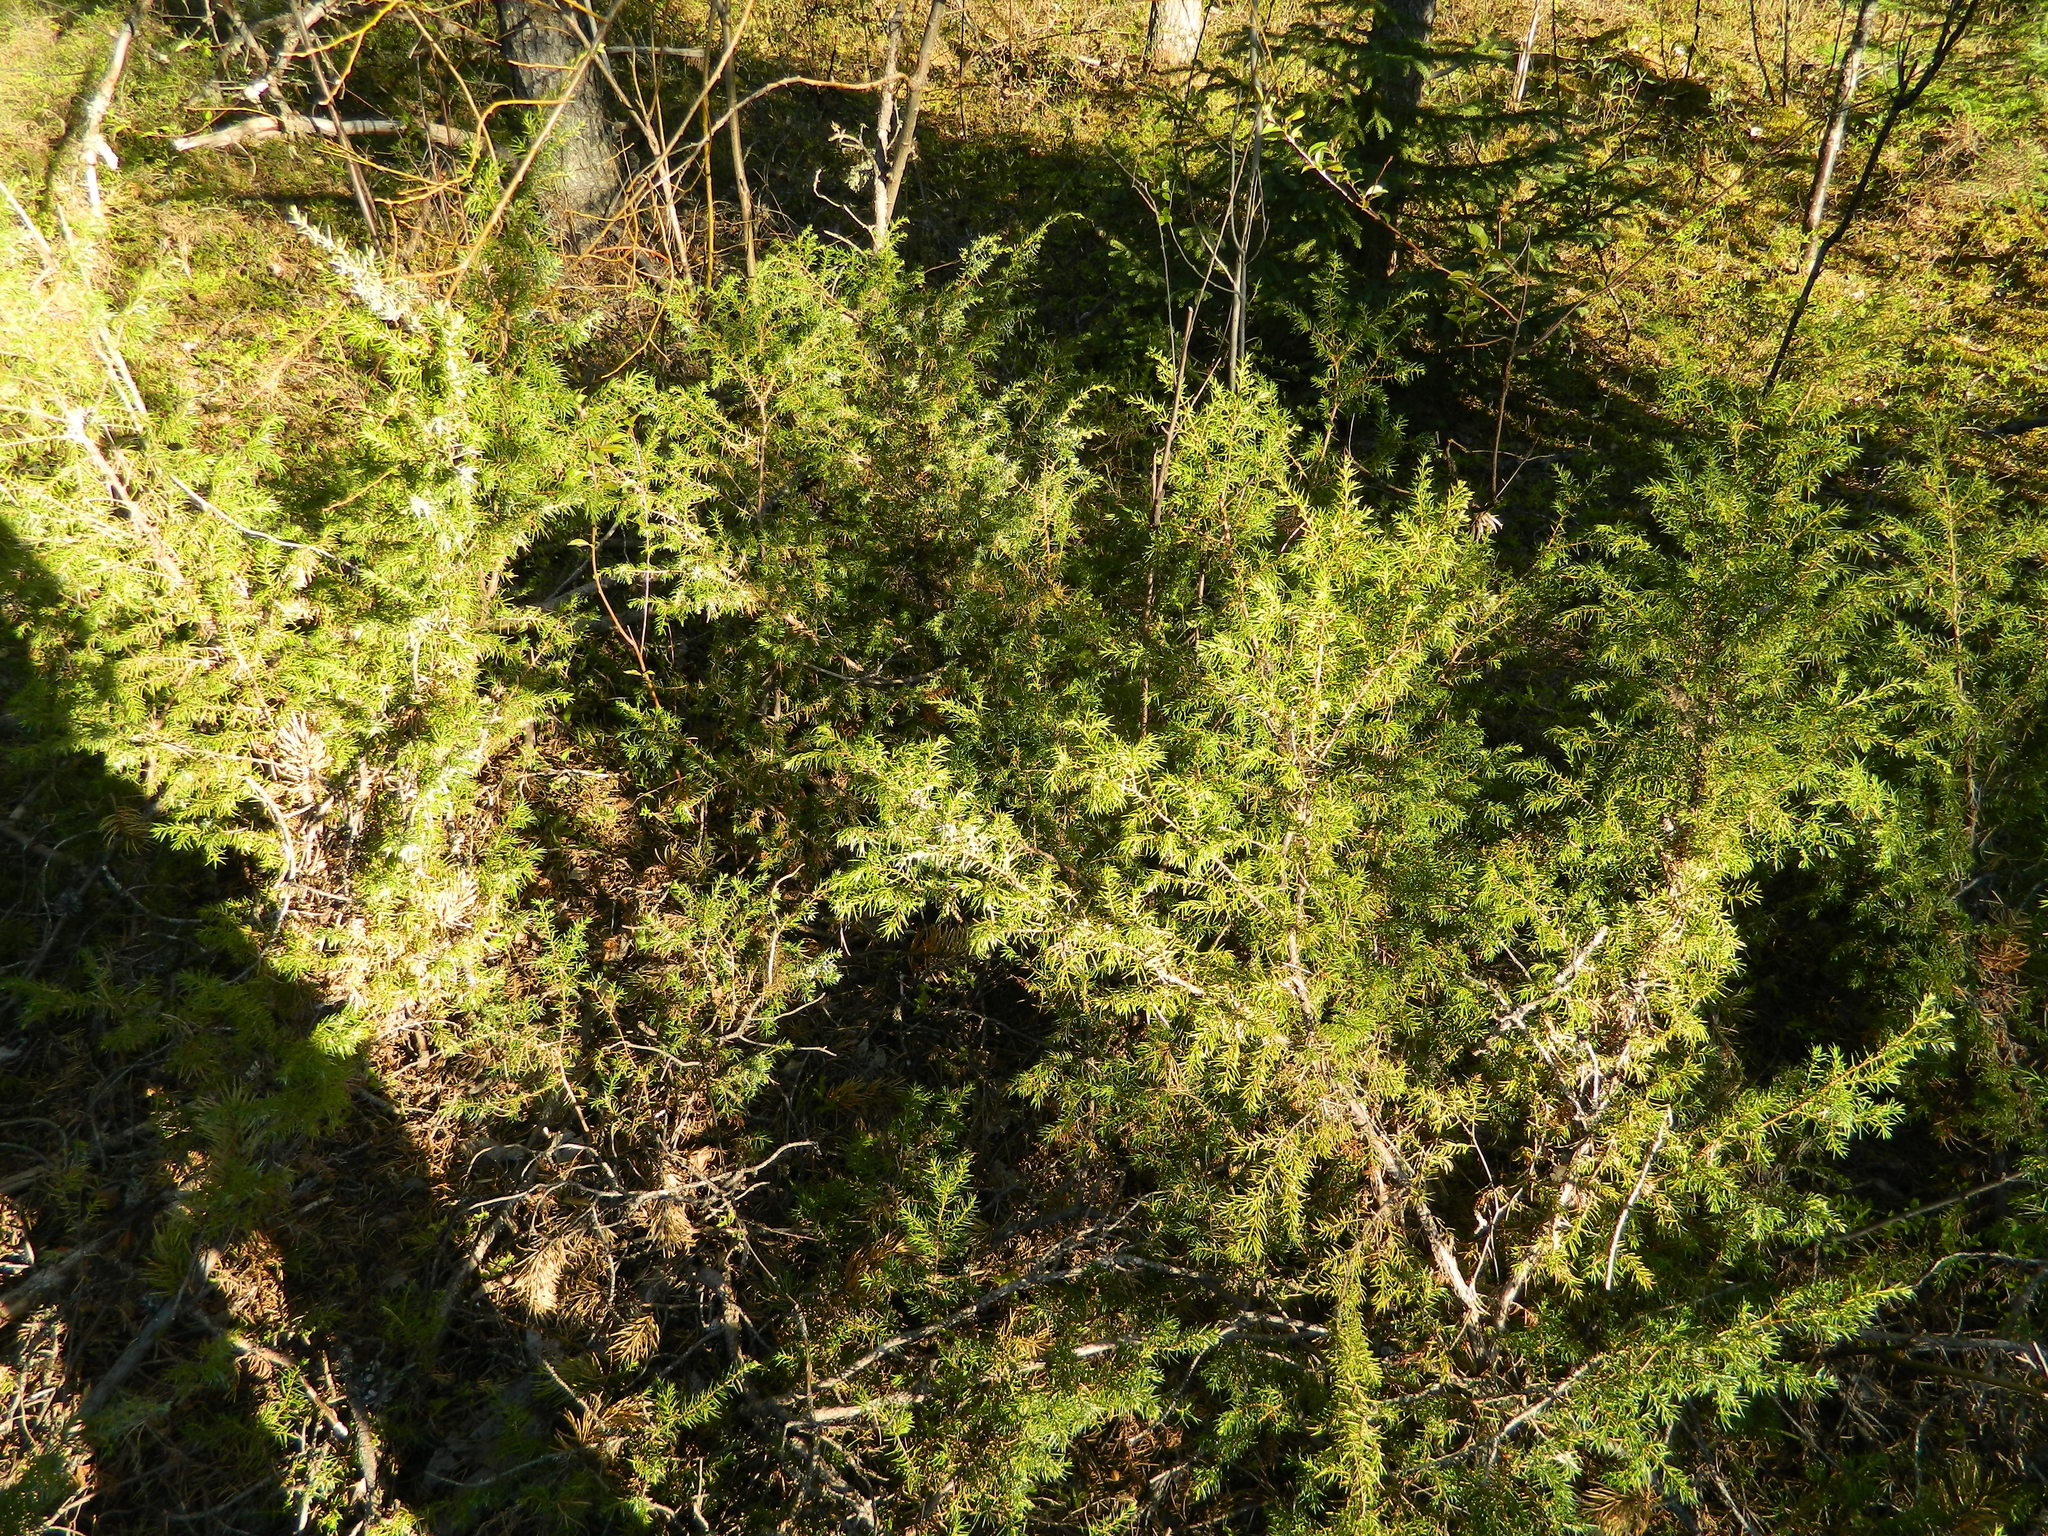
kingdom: Plantae
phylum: Tracheophyta
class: Pinopsida
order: Pinales
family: Cupressaceae
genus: Juniperus
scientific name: Juniperus communis
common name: Common juniper
